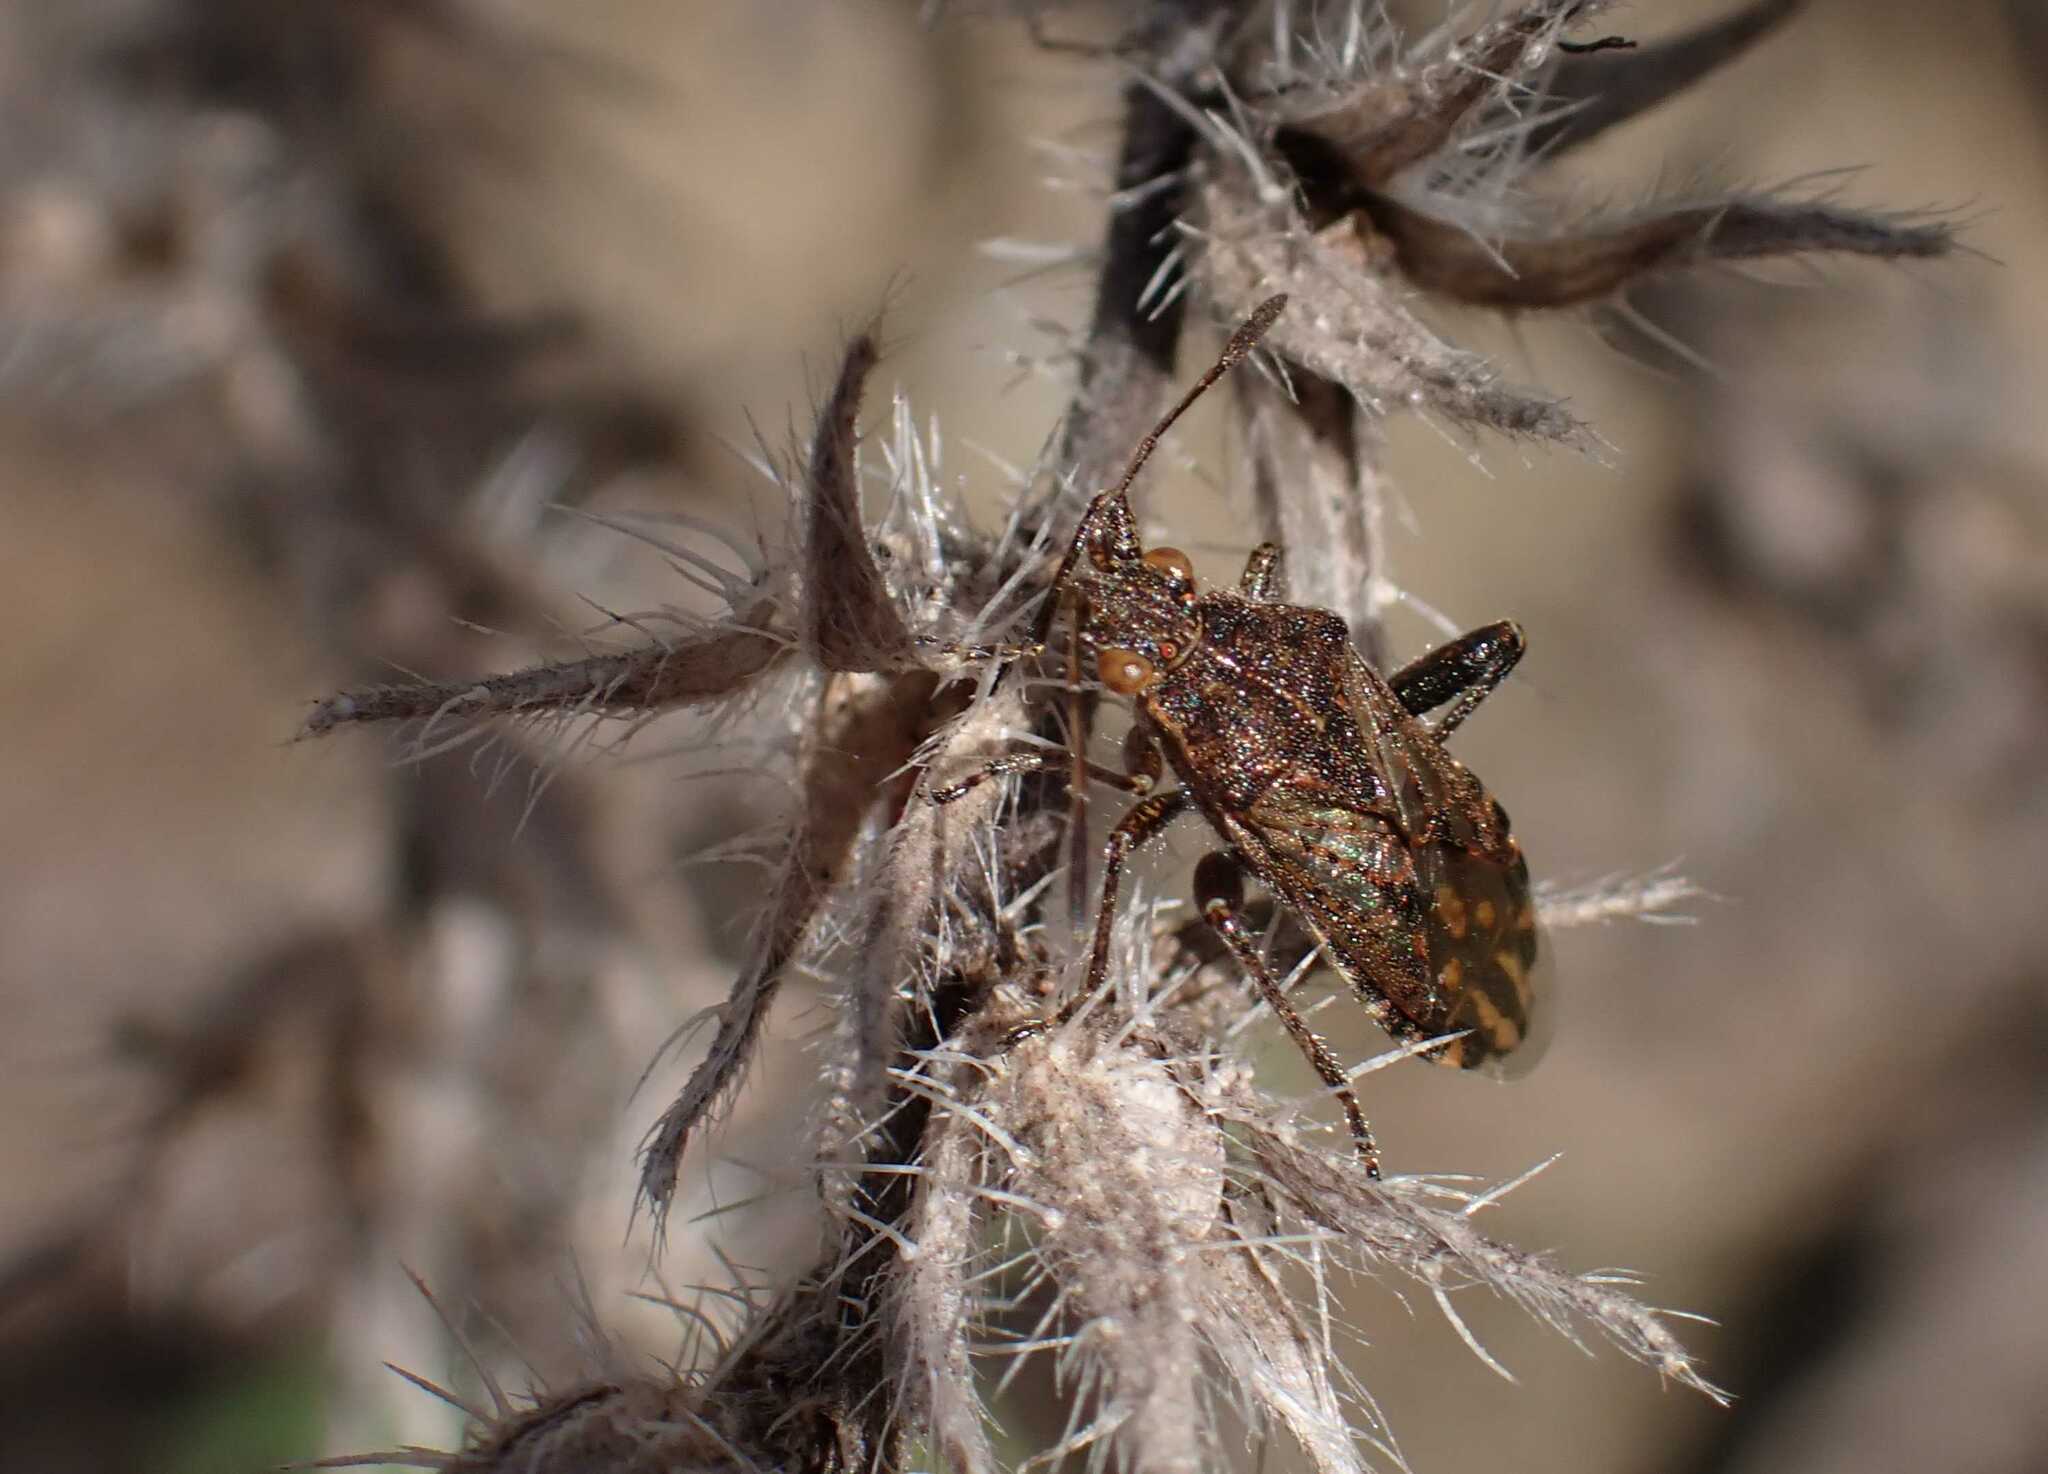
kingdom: Animalia
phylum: Arthropoda
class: Insecta
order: Hemiptera
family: Rhopalidae
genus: Stictopleurus
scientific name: Stictopleurus punctatonervosus
